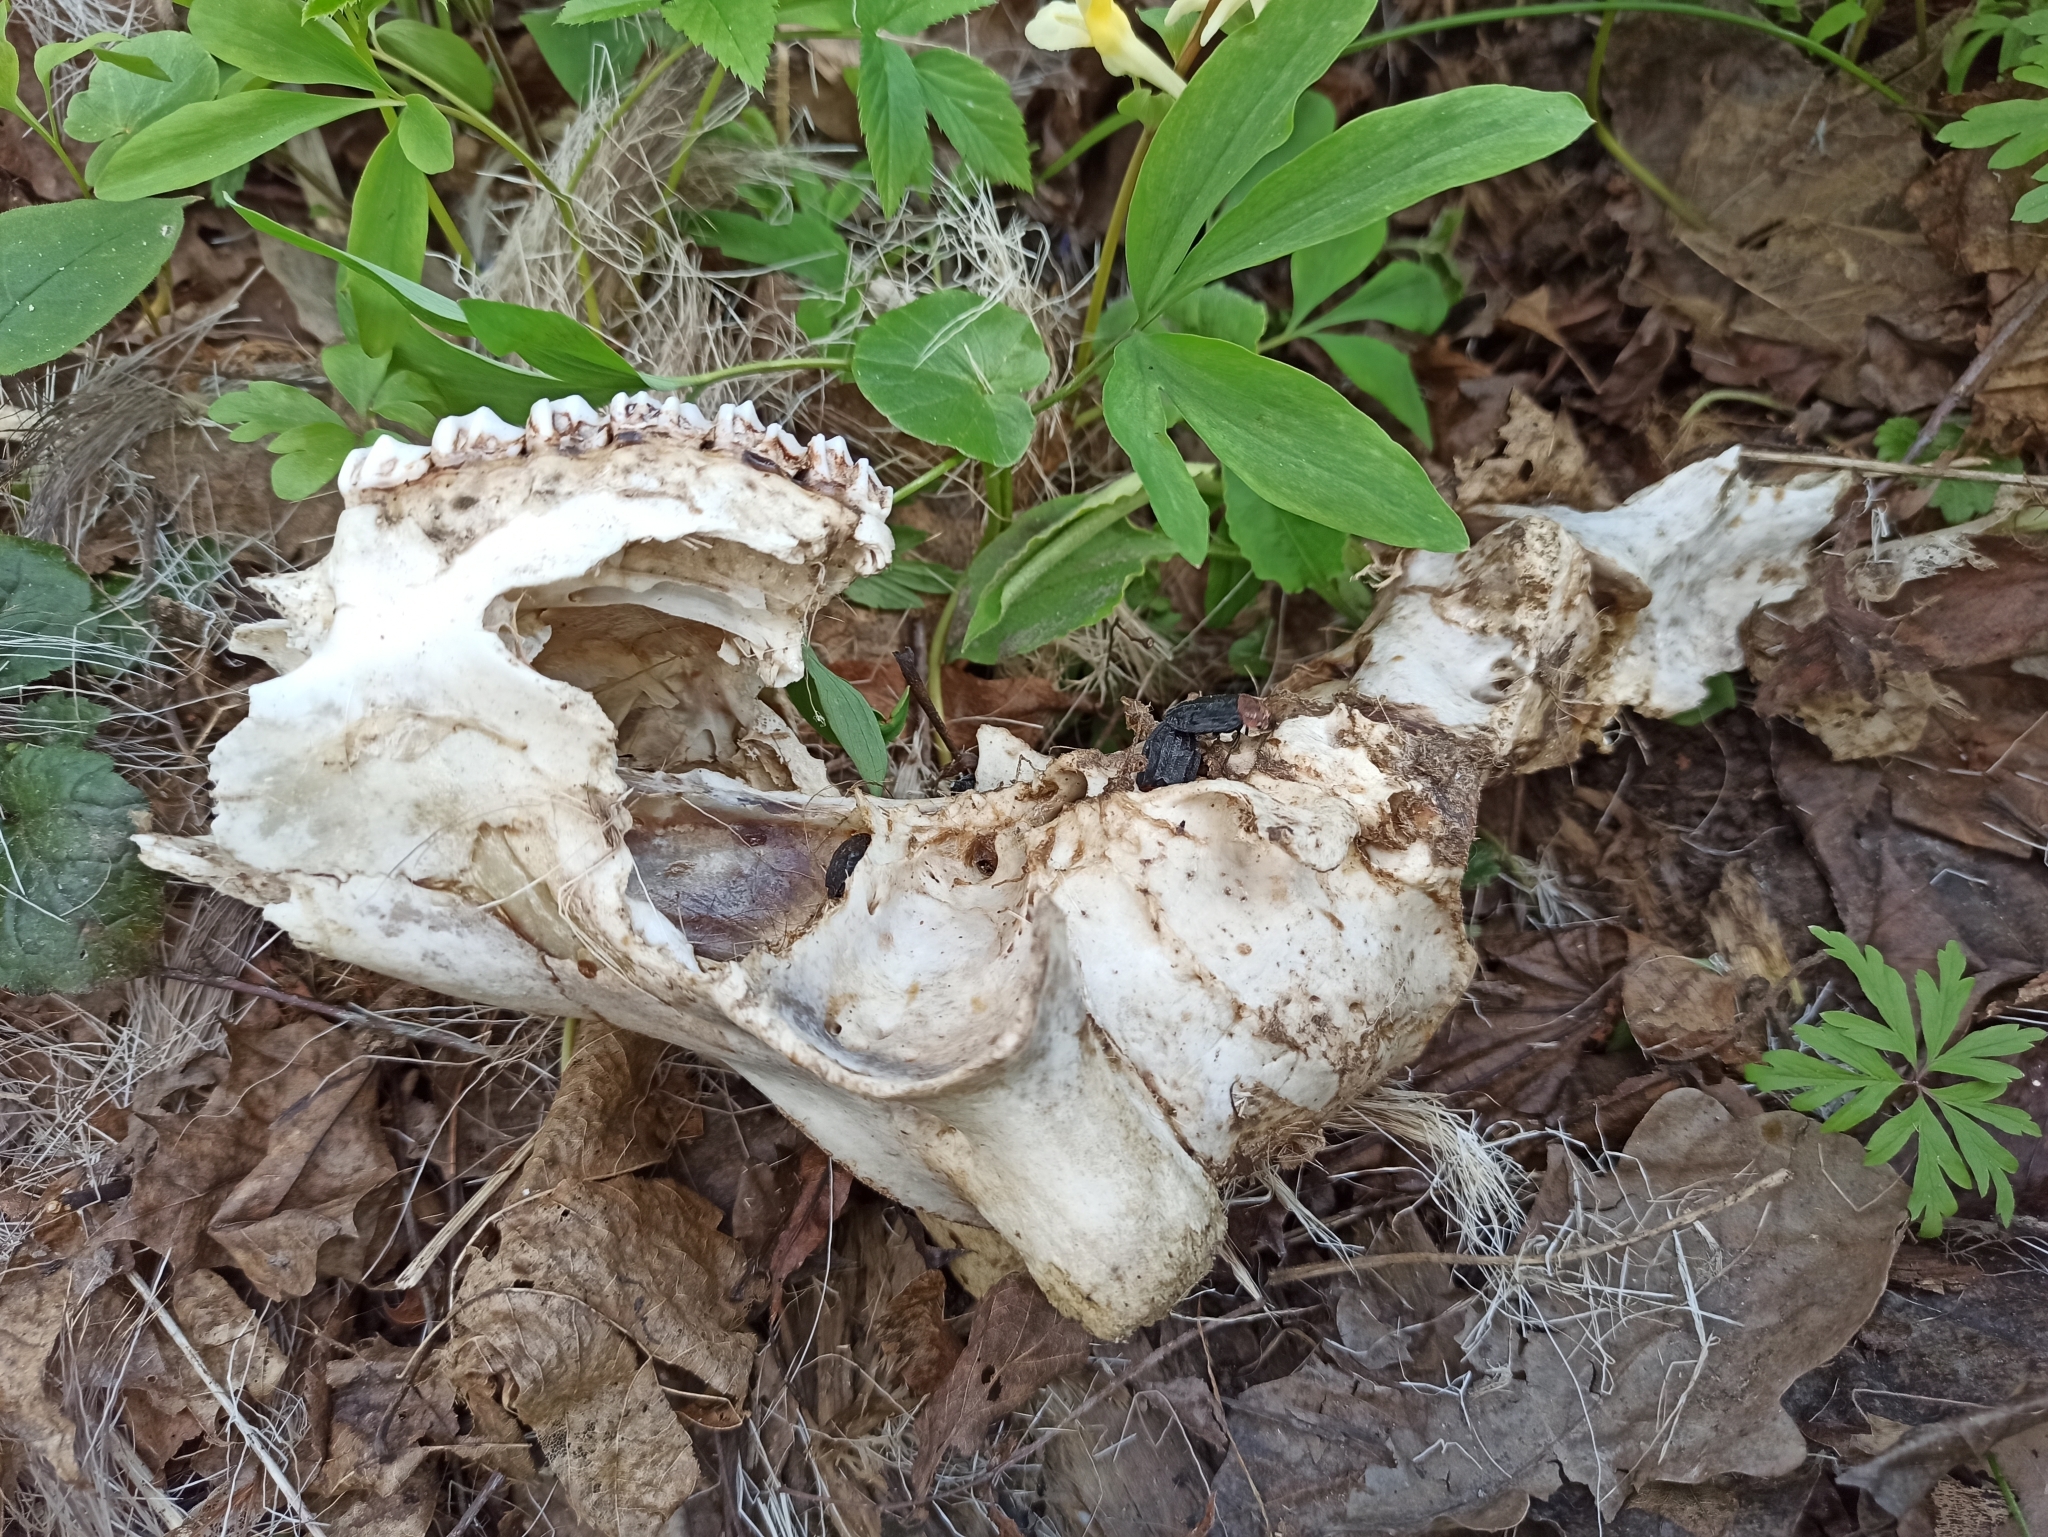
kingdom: Animalia
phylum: Chordata
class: Mammalia
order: Artiodactyla
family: Cervidae
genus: Capreolus
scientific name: Capreolus capreolus
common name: Western roe deer
